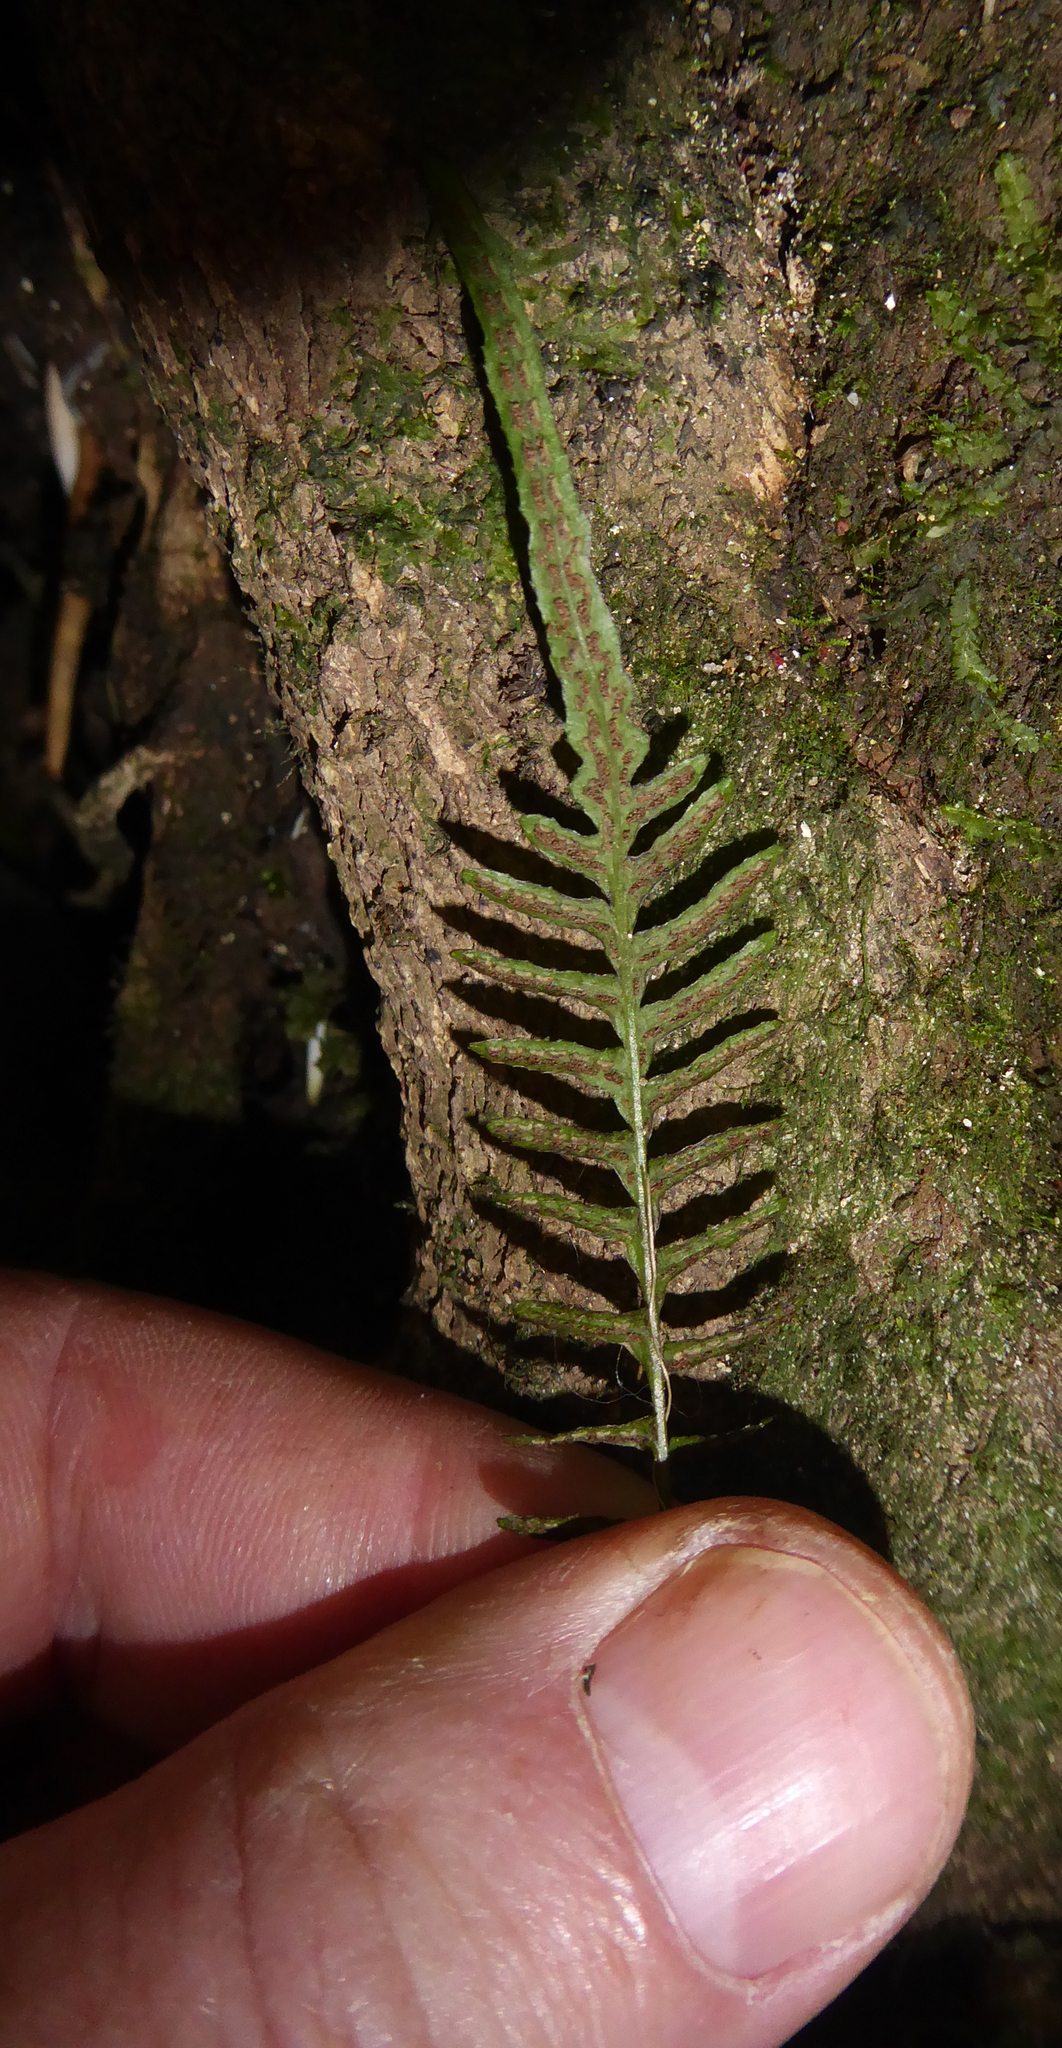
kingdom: Plantae
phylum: Tracheophyta
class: Polypodiopsida
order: Polypodiales
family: Blechnaceae
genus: Doodia
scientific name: Doodia squarrosa
